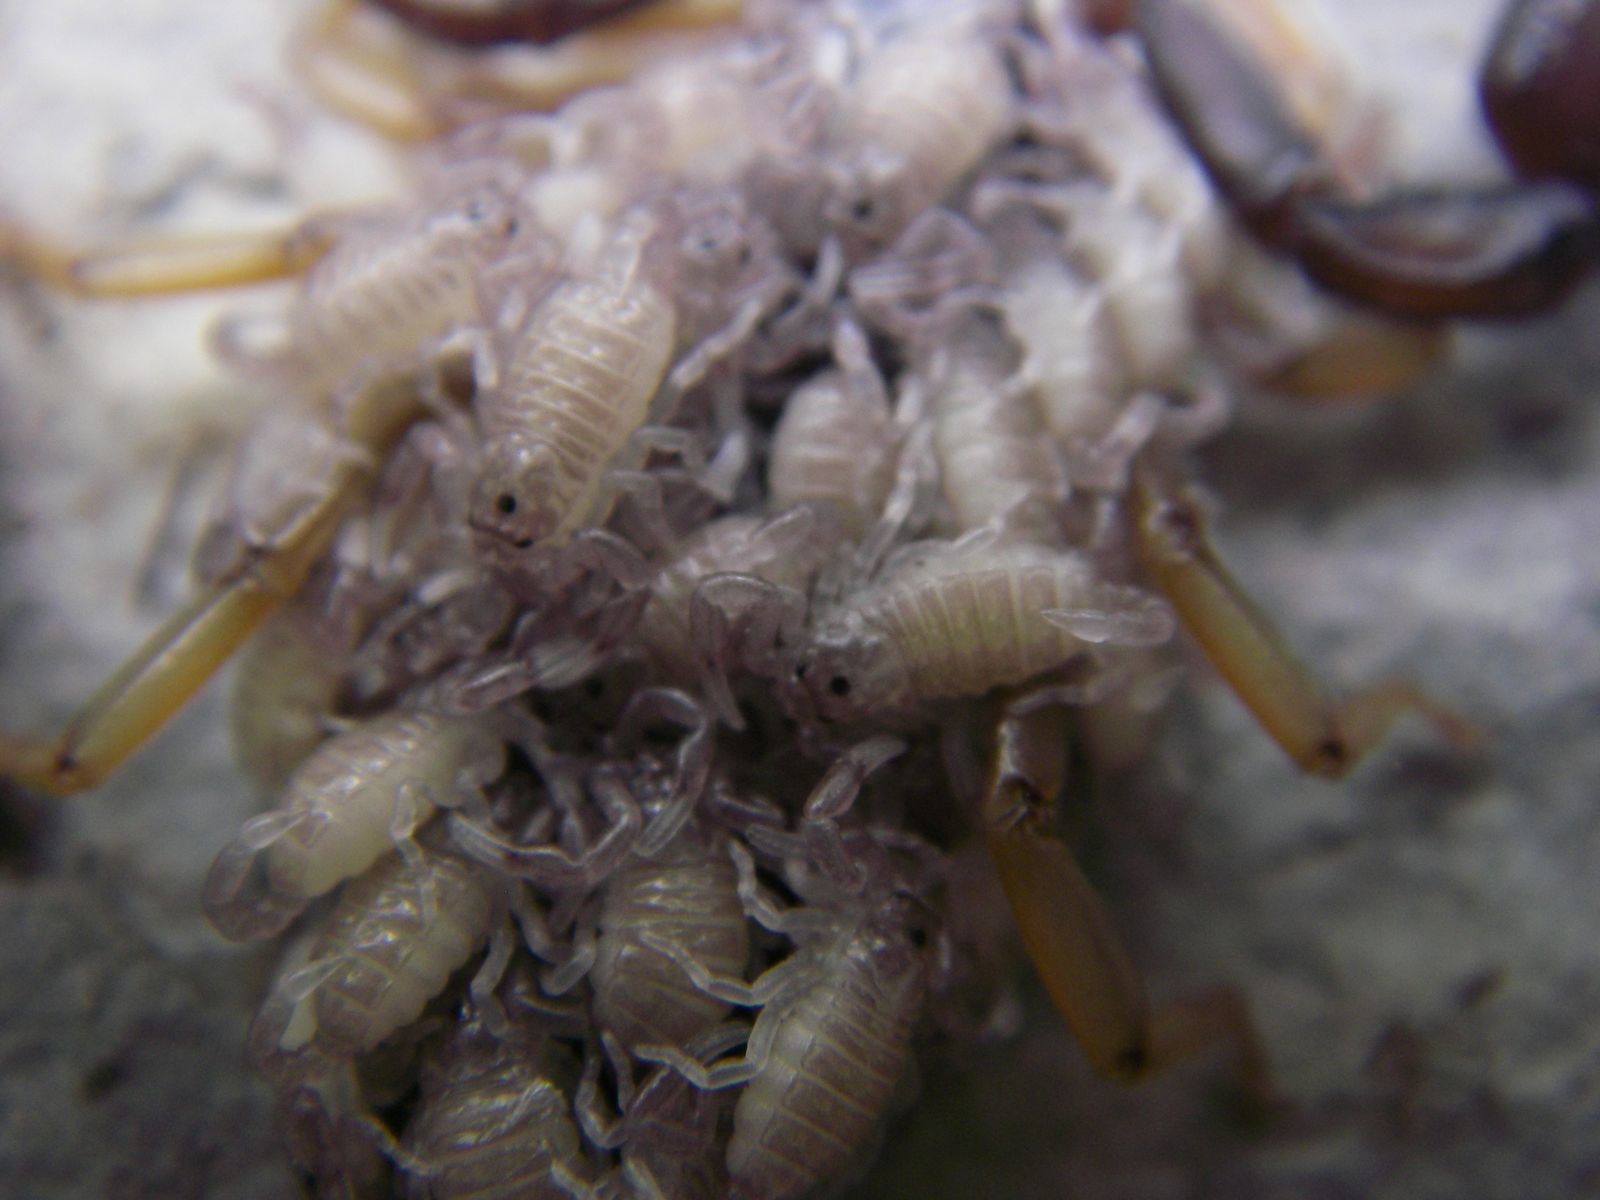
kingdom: Animalia
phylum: Arthropoda
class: Arachnida
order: Scorpiones
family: Euscorpiidae
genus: Euscorpius
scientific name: Euscorpius flavicaudis
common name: European yellow-tailed scorpion
